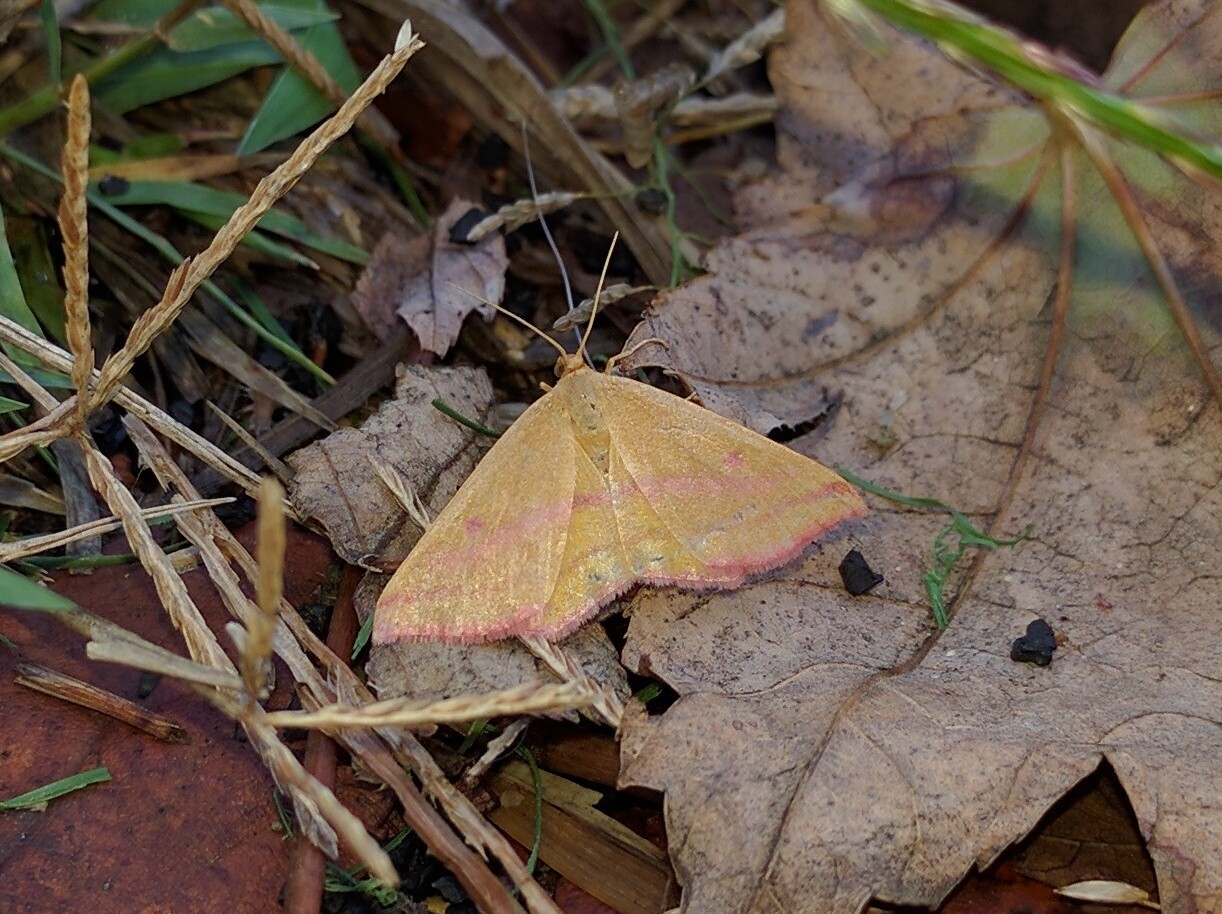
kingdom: Animalia
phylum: Arthropoda
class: Insecta
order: Lepidoptera
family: Geometridae
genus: Haematopis
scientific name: Haematopis grataria
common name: Chickweed geometer
